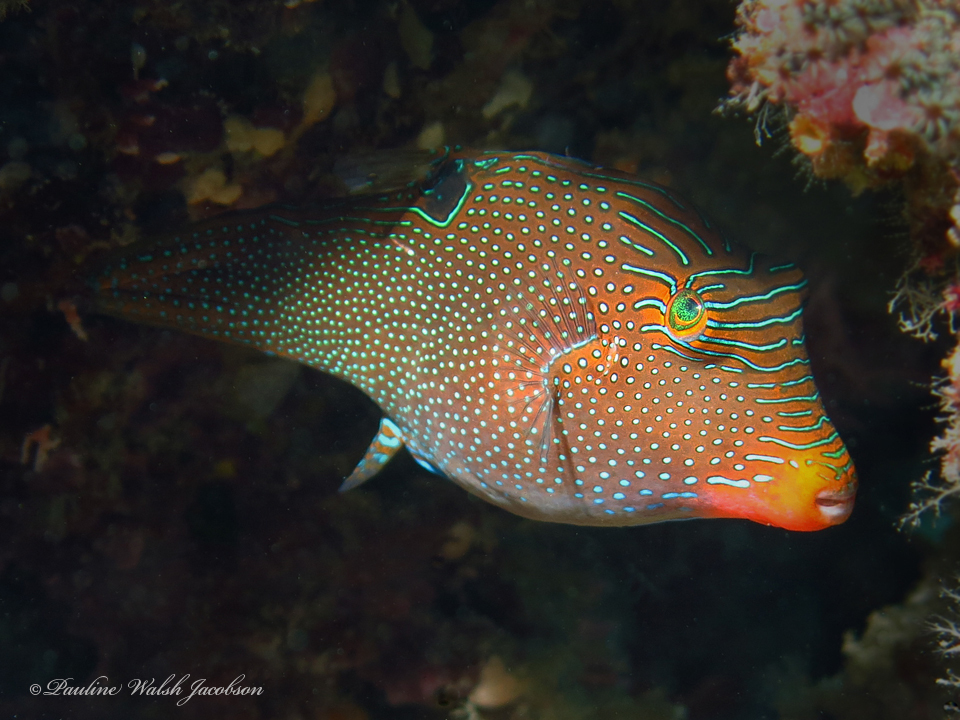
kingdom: Animalia
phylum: Chordata
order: Tetraodontiformes
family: Tetraodontidae
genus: Canthigaster
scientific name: Canthigaster papua
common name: False-eyed pufferfish
